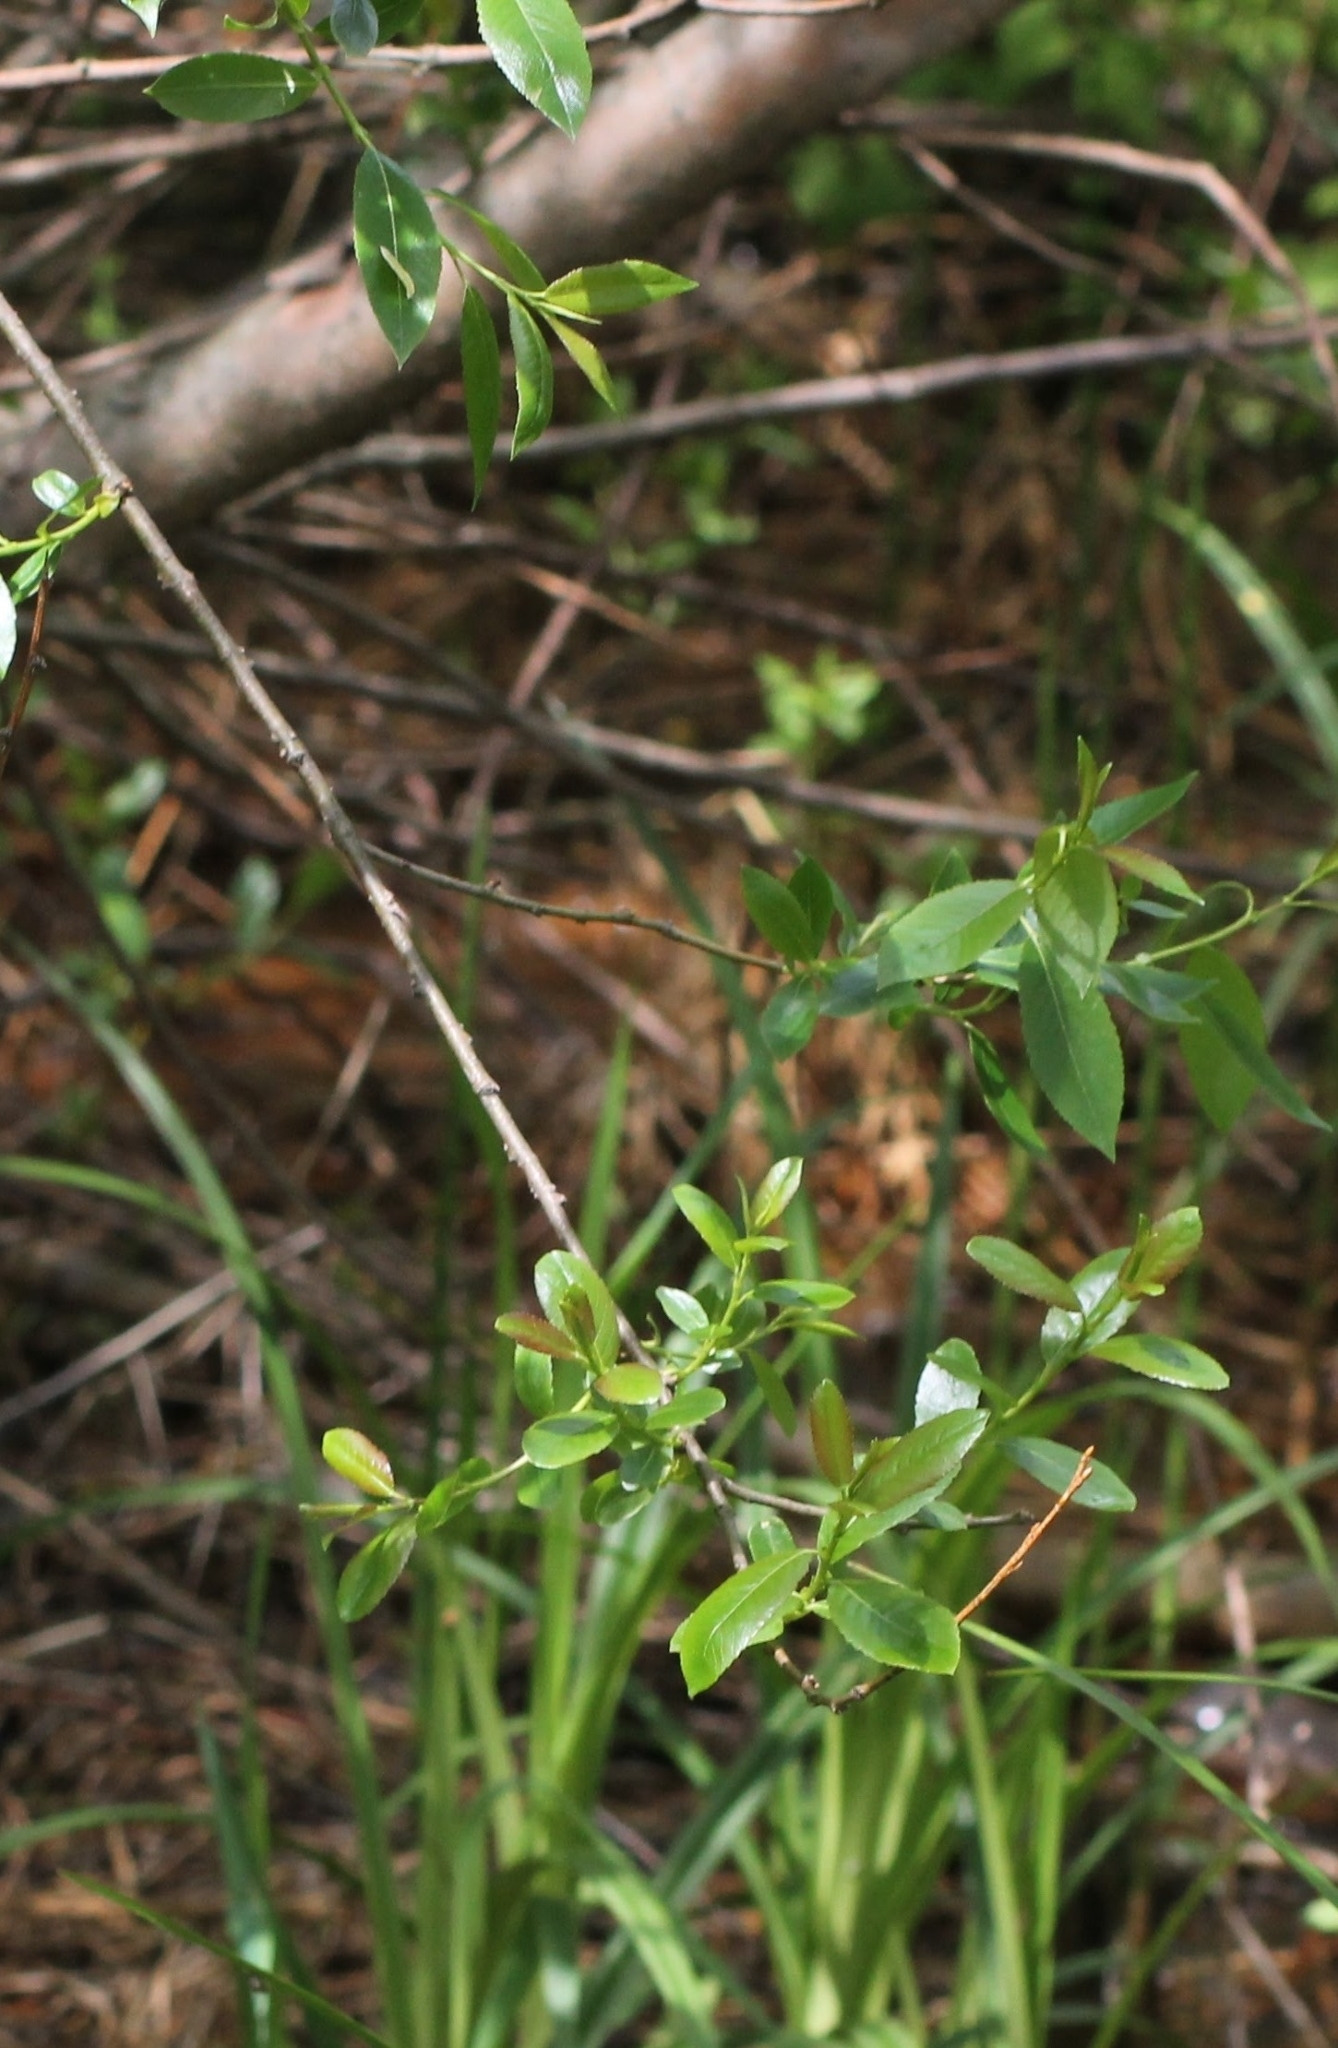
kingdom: Plantae
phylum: Tracheophyta
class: Magnoliopsida
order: Malpighiales
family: Salicaceae
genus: Salix
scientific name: Salix triandra
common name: Almond willow
